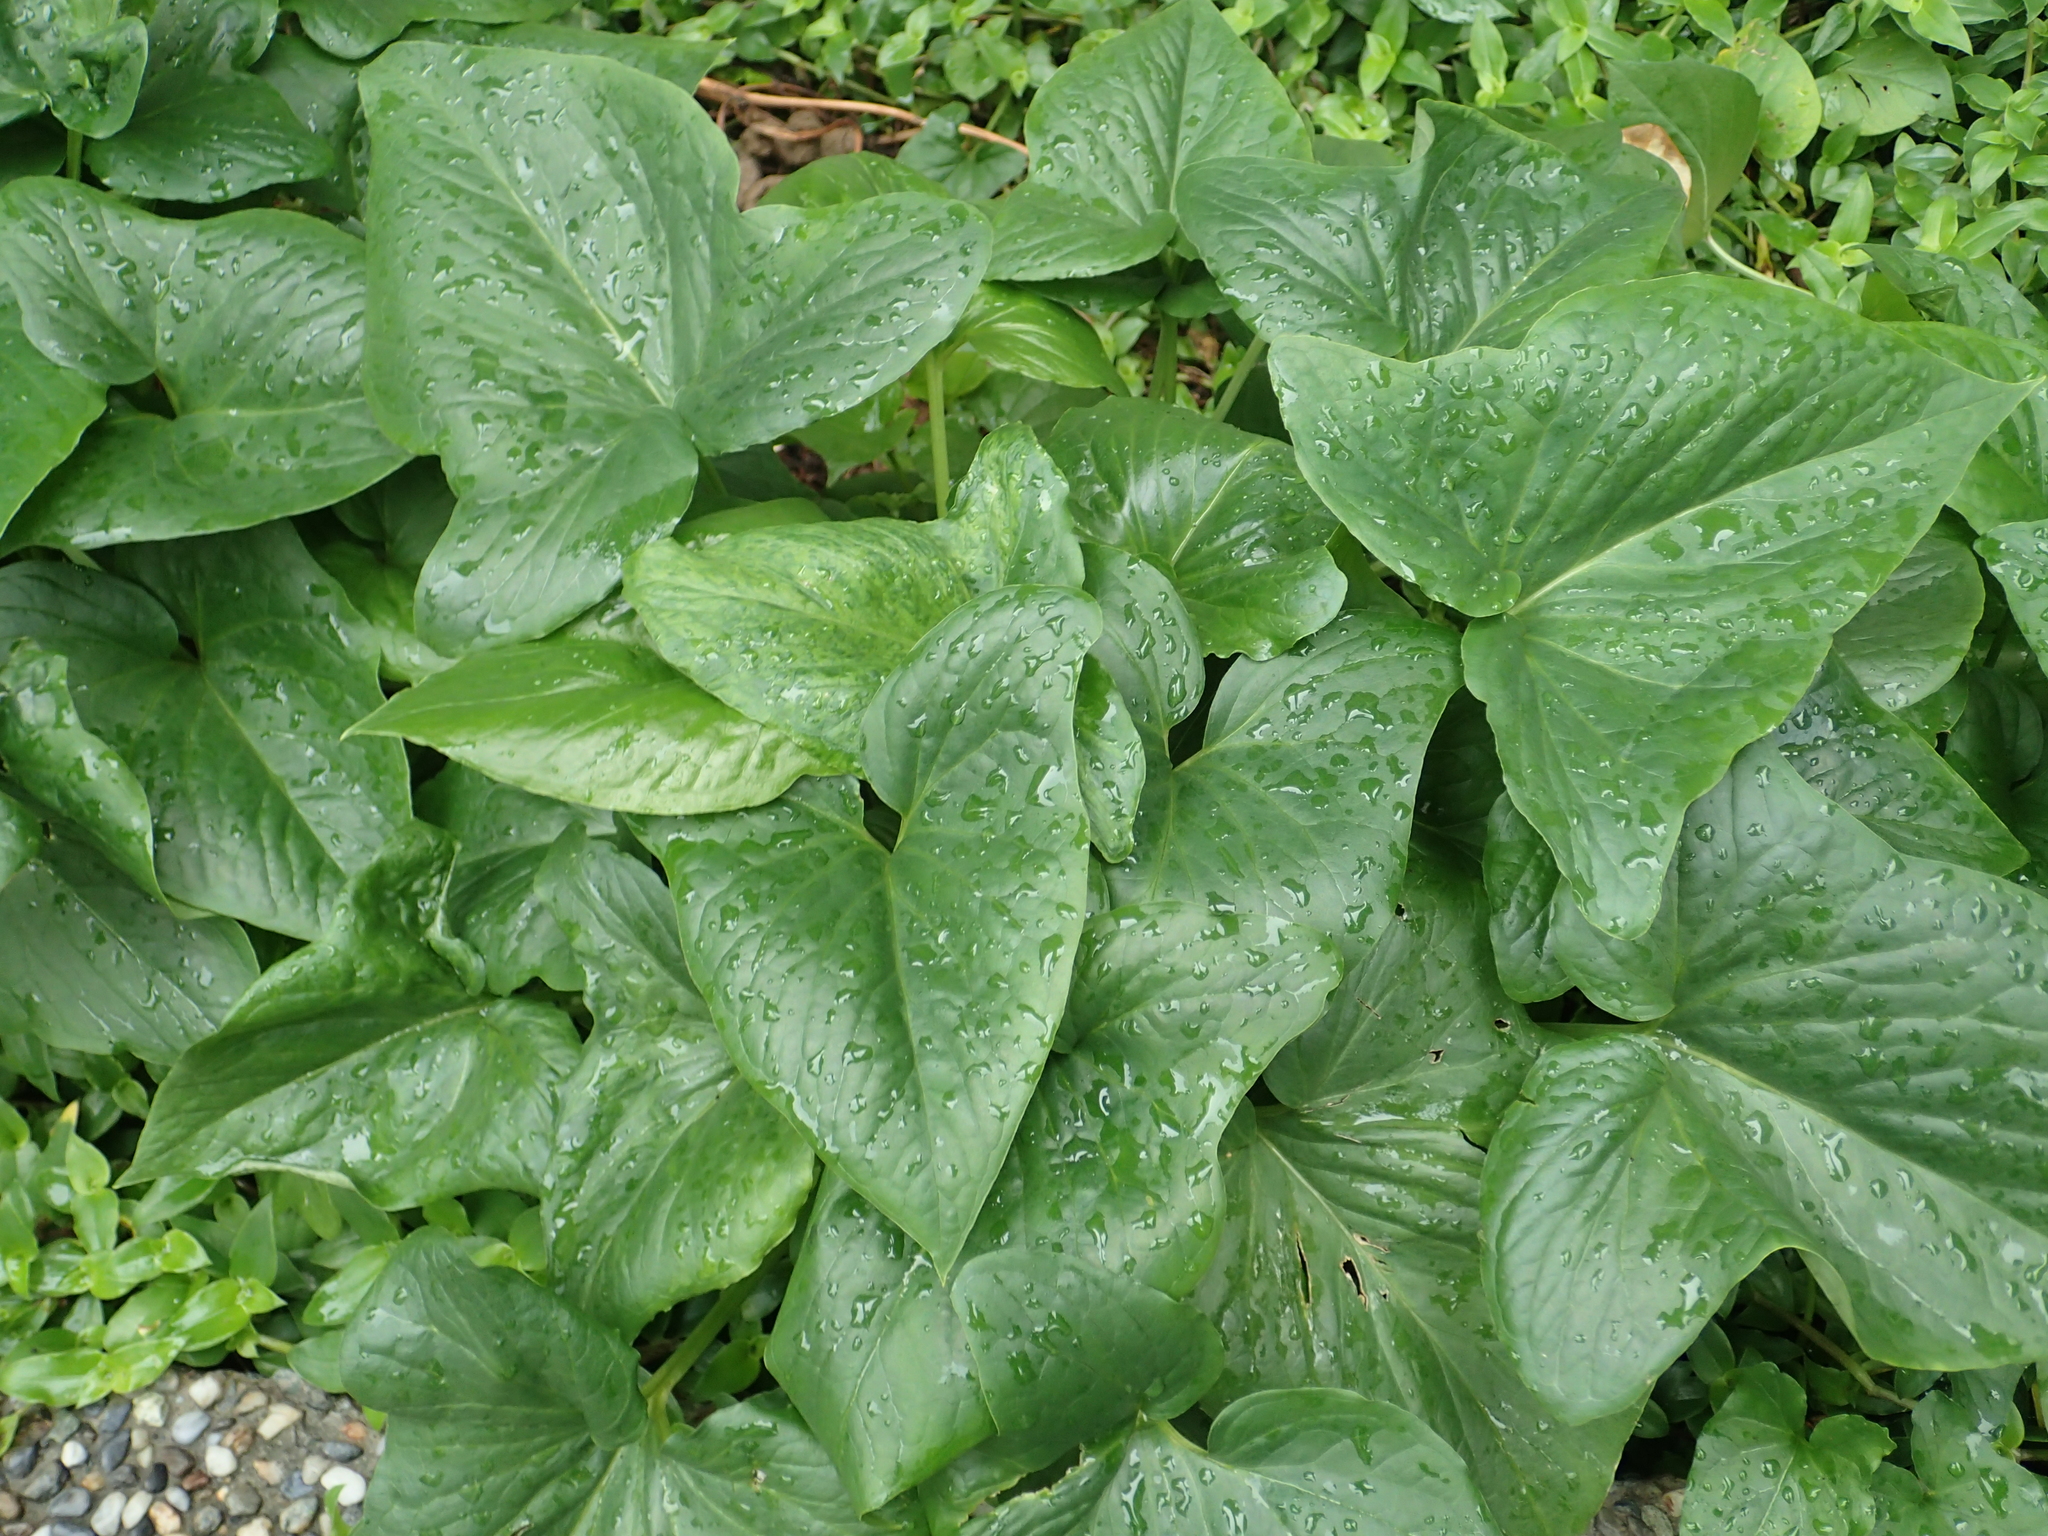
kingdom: Plantae
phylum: Tracheophyta
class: Liliopsida
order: Alismatales
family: Araceae
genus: Typhonium
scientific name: Typhonium roxburghii
